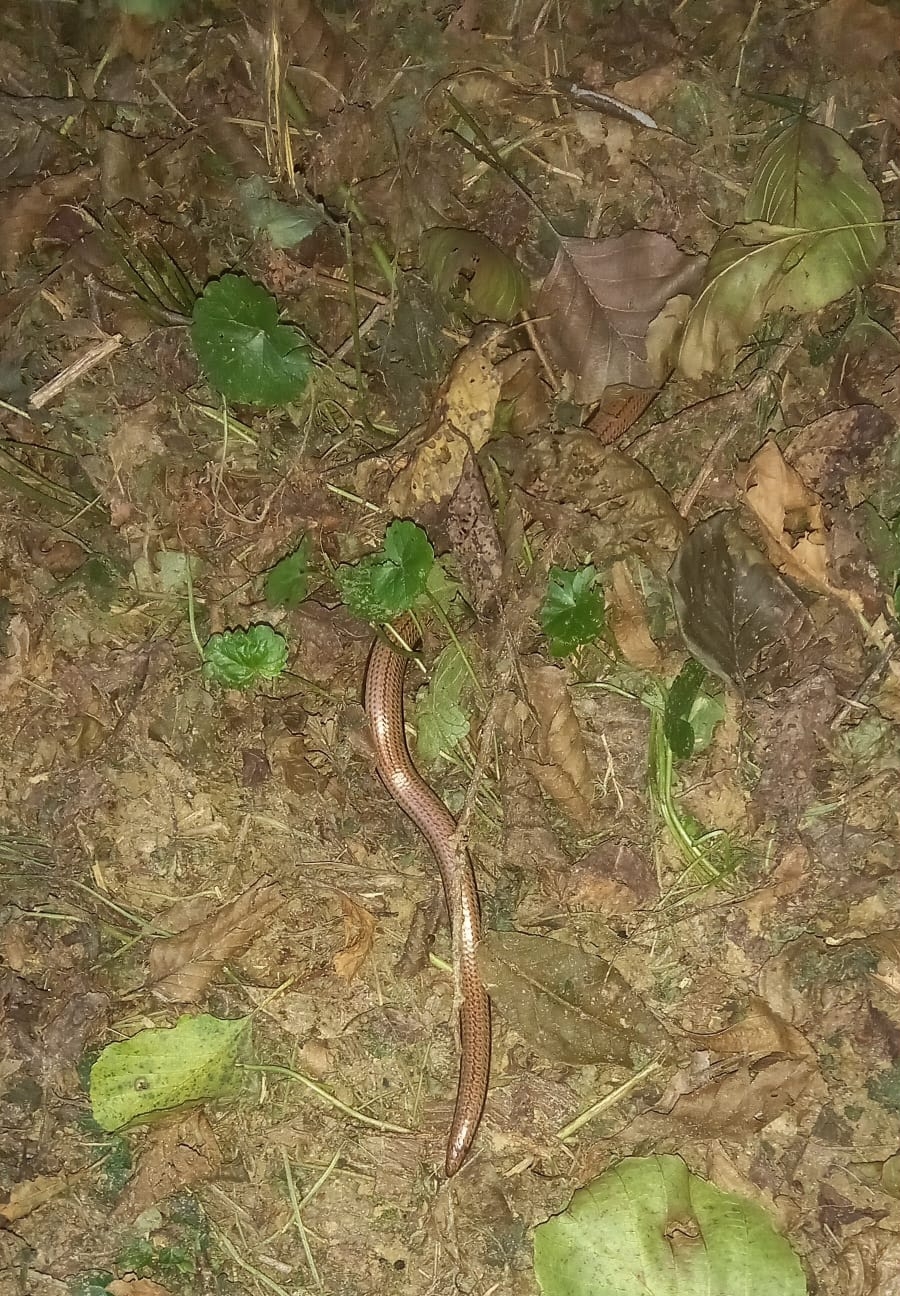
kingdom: Animalia
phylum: Chordata
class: Squamata
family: Anguidae
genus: Anguis
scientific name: Anguis fragilis
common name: Slow worm
